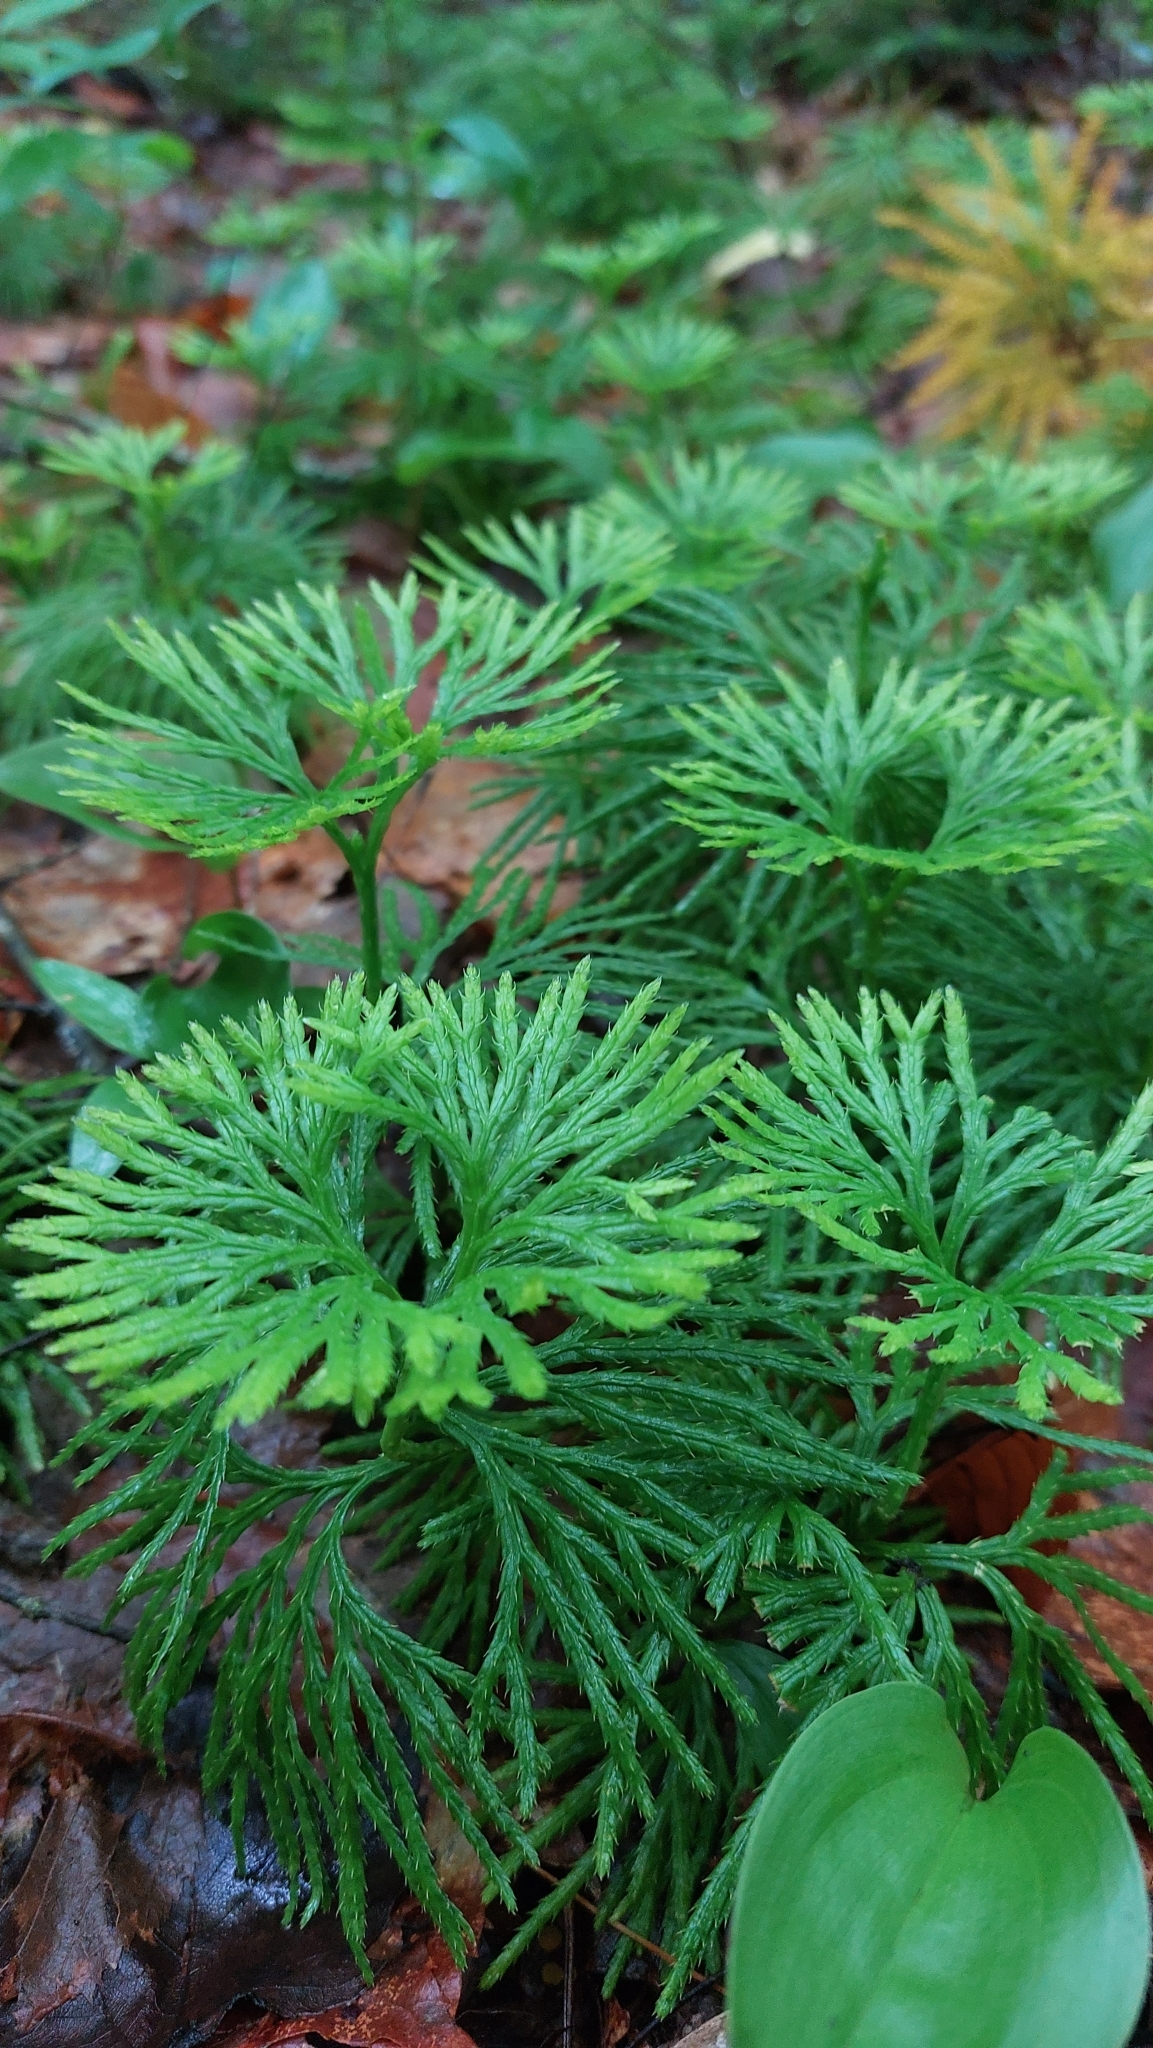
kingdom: Plantae
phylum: Tracheophyta
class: Lycopodiopsida
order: Lycopodiales
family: Lycopodiaceae
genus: Diphasiastrum
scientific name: Diphasiastrum digitatum
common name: Southern running-pine
